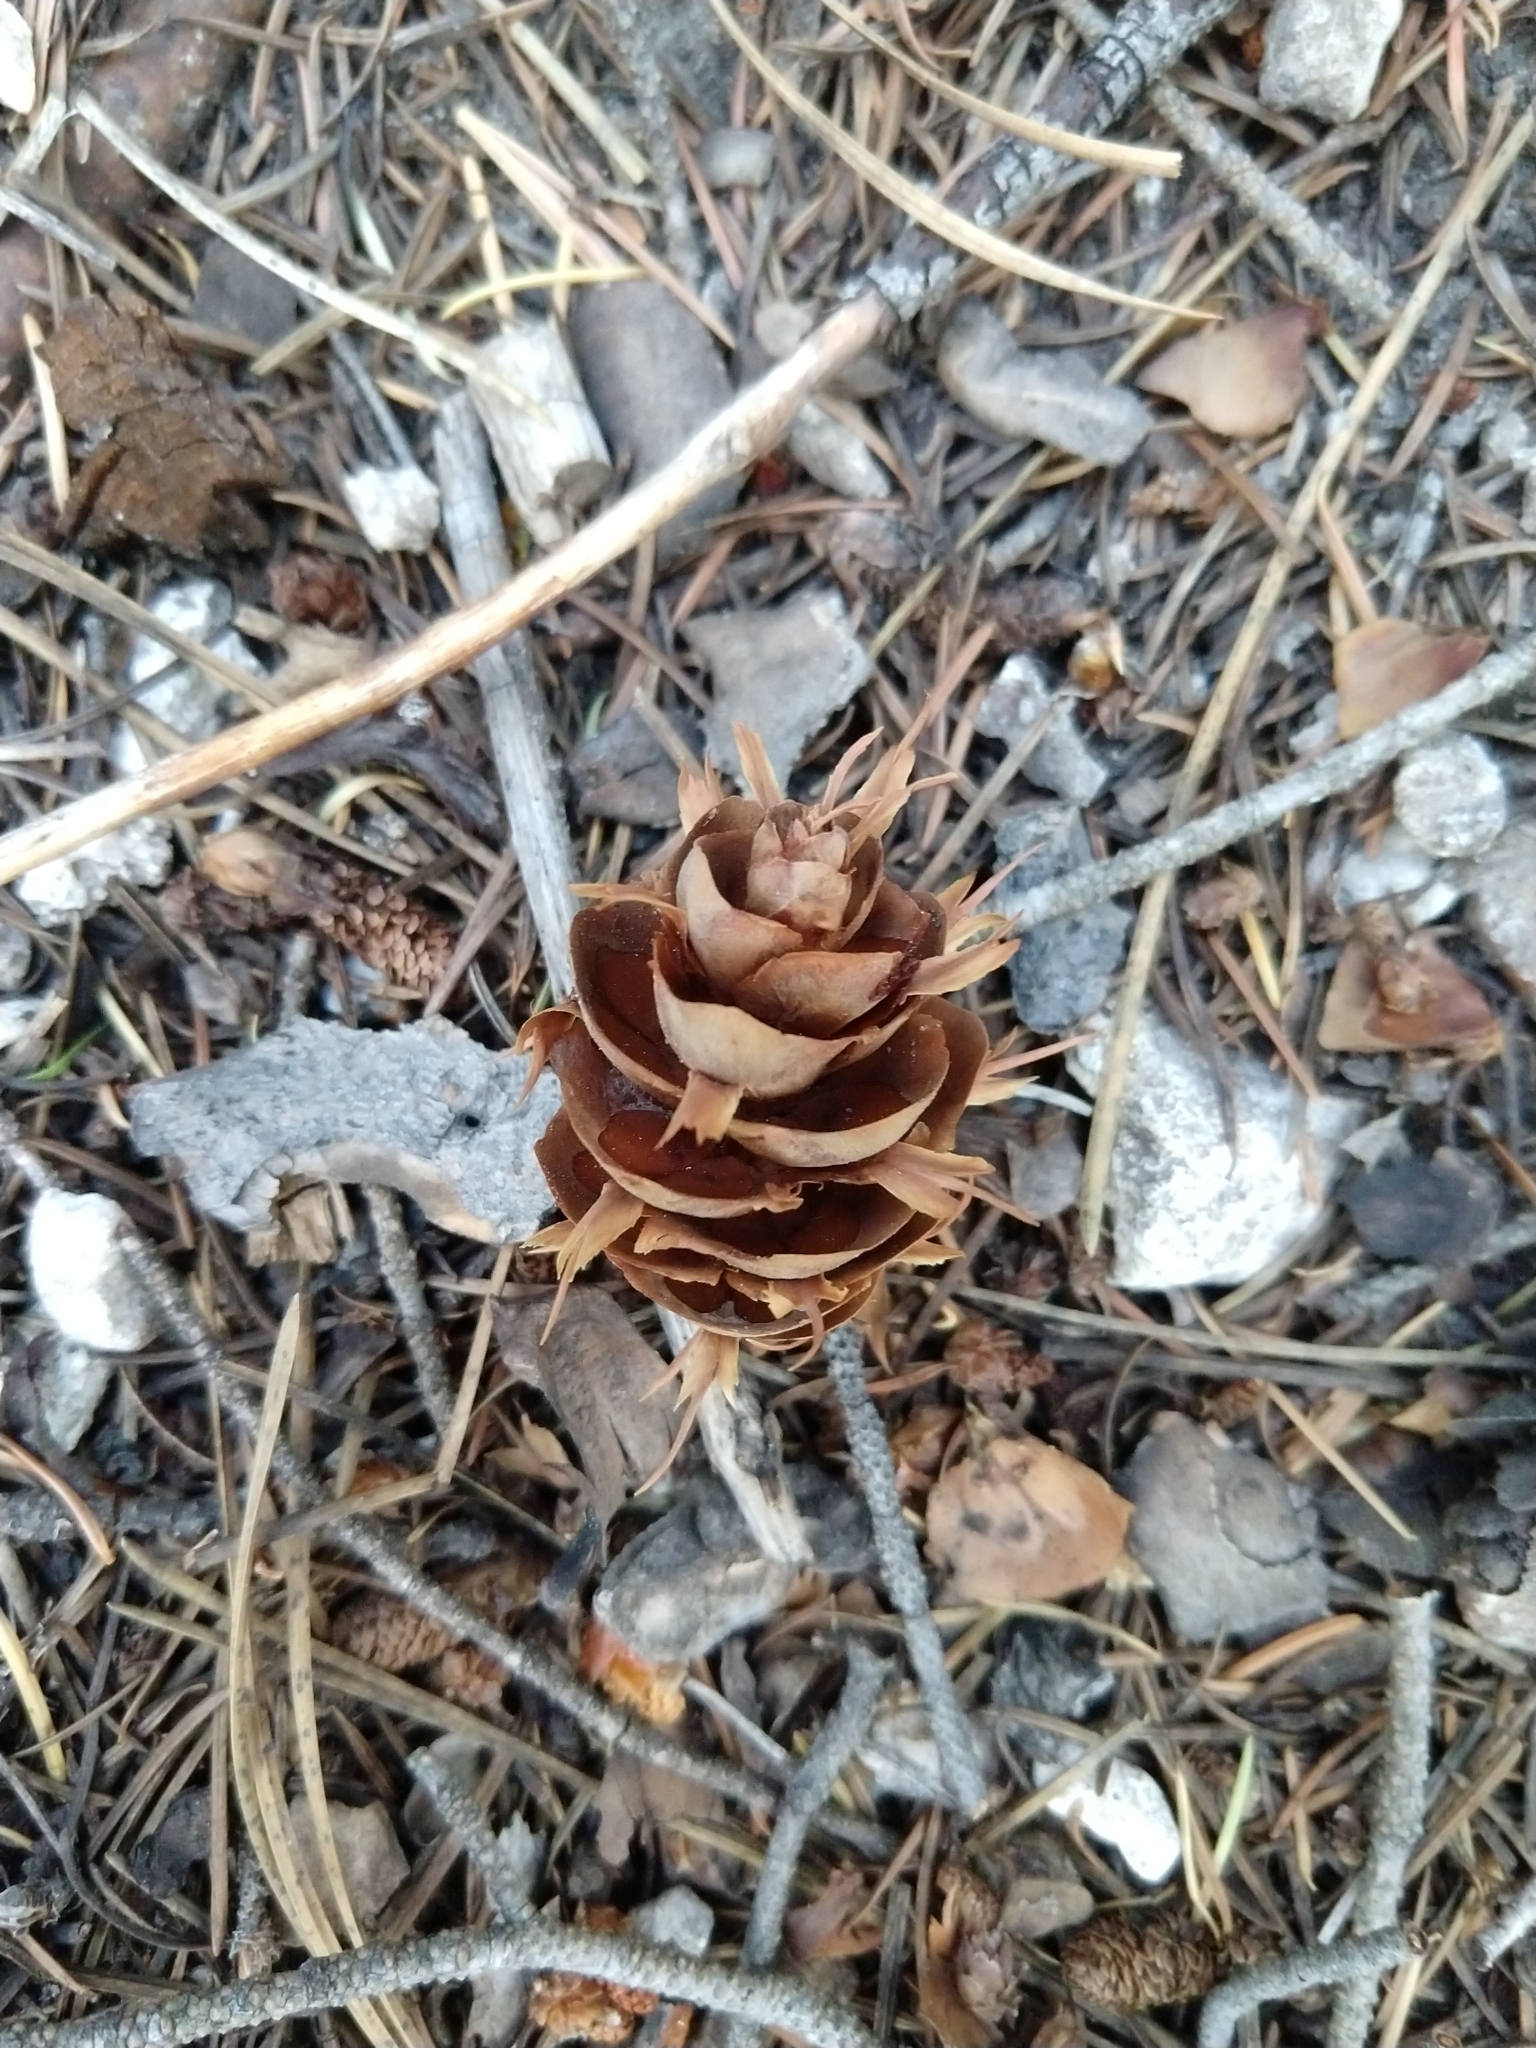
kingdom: Plantae
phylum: Tracheophyta
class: Pinopsida
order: Pinales
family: Pinaceae
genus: Pseudotsuga
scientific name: Pseudotsuga menziesii
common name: Douglas fir
